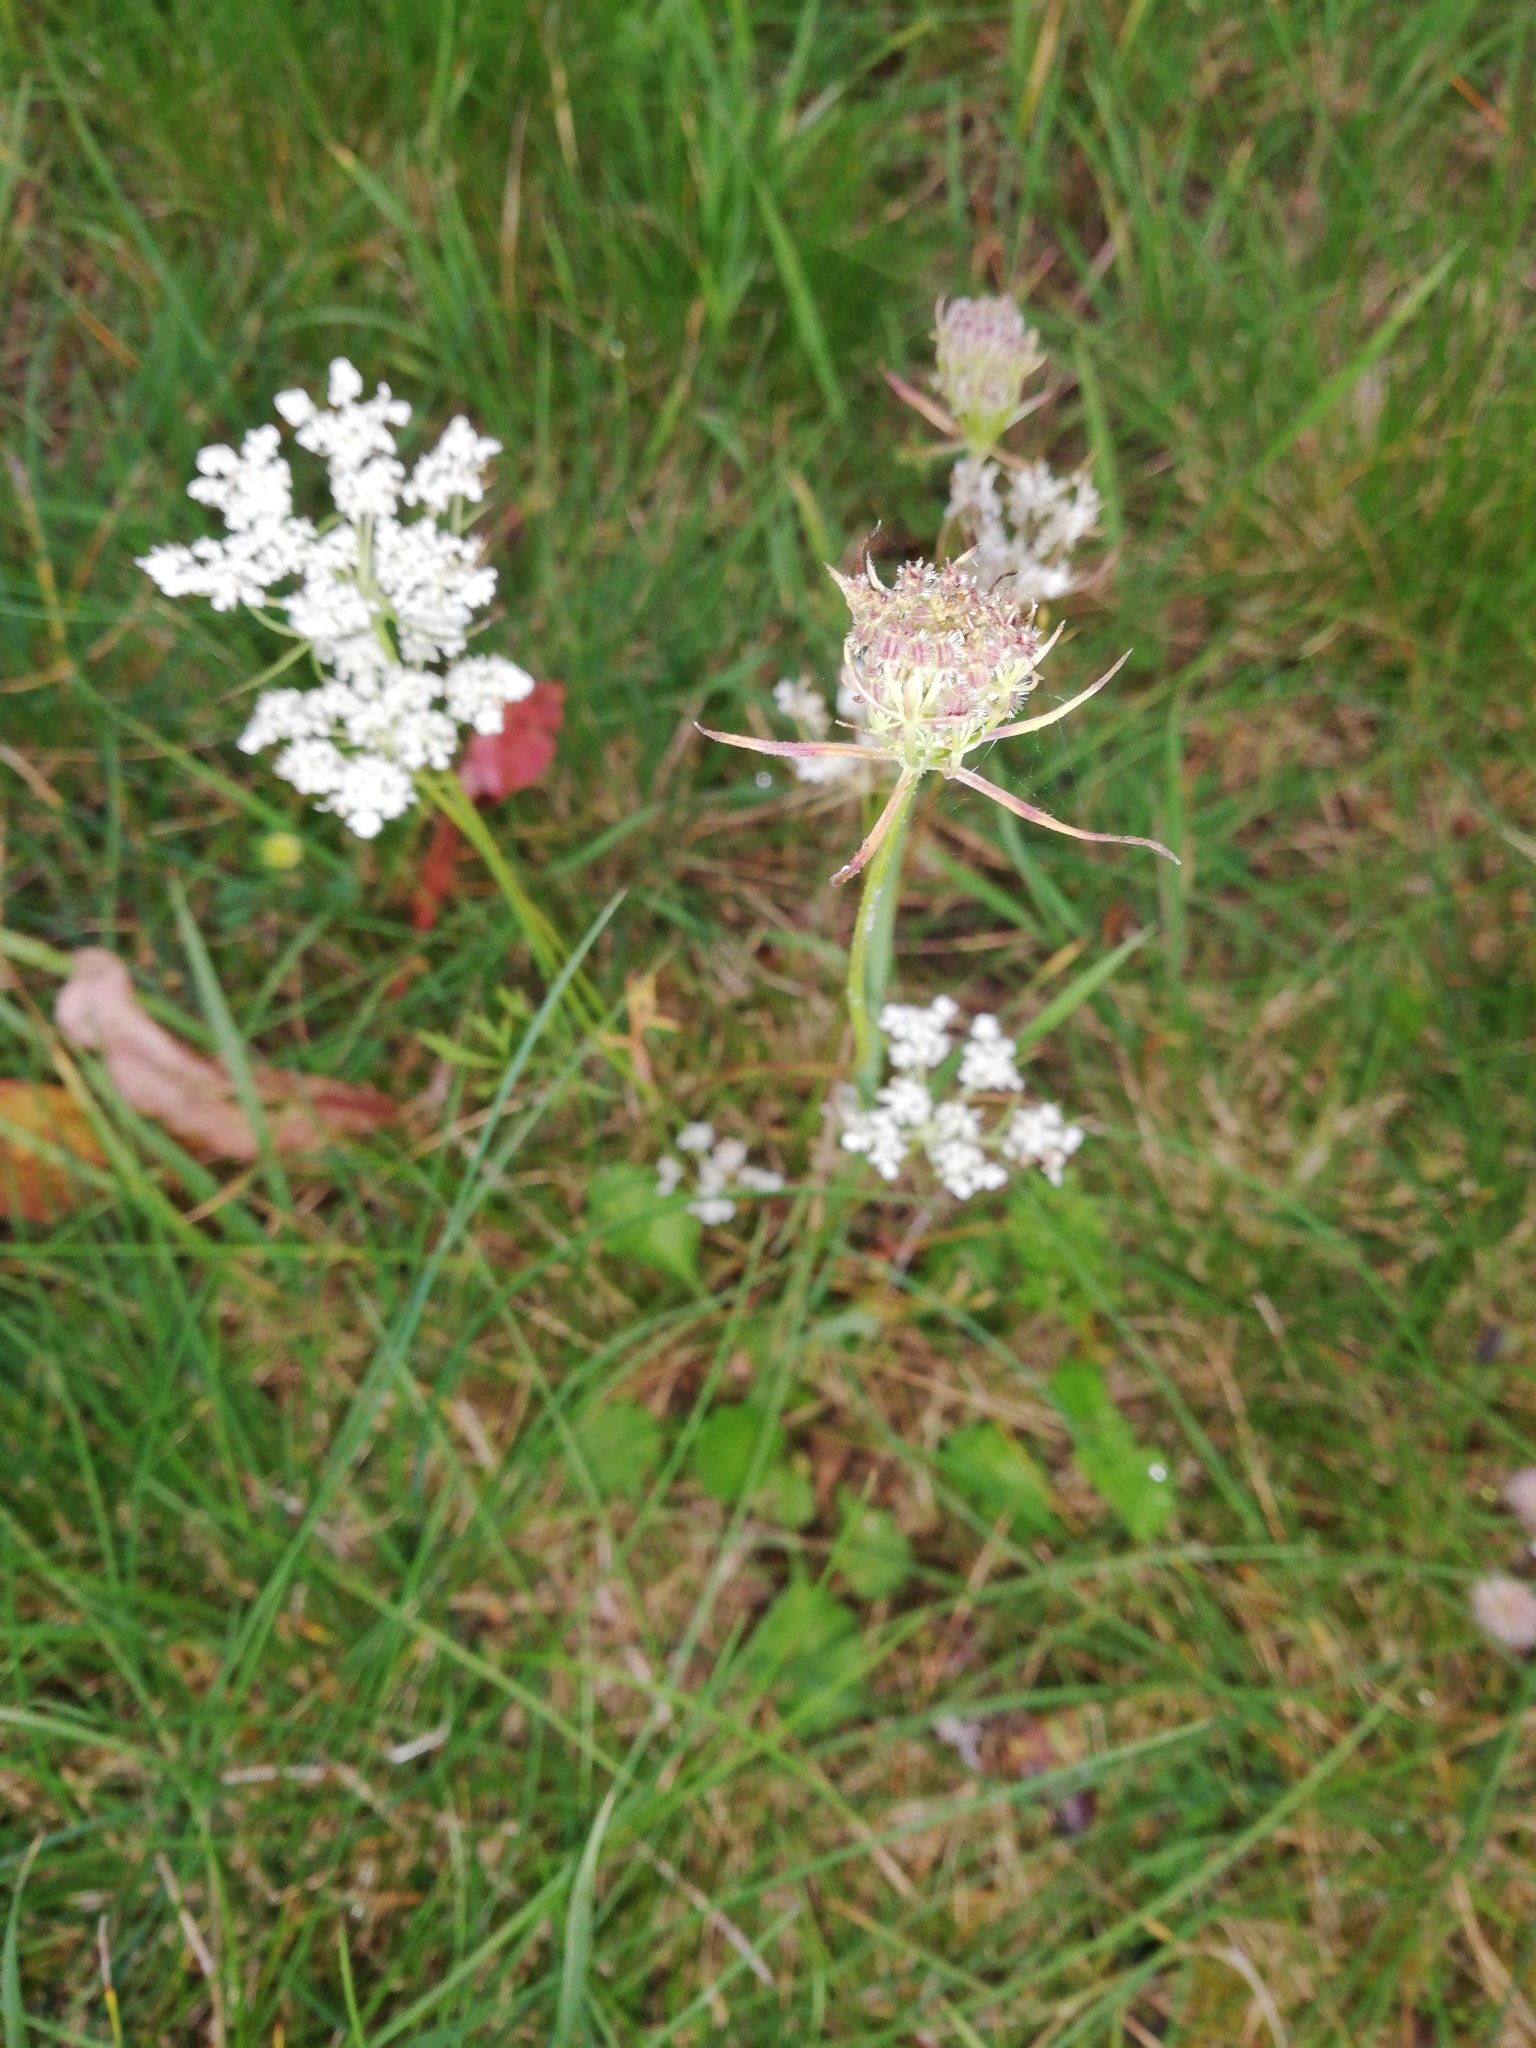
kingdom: Plantae
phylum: Tracheophyta
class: Magnoliopsida
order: Apiales
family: Apiaceae
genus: Daucus
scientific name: Daucus carota
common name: Wild carrot
